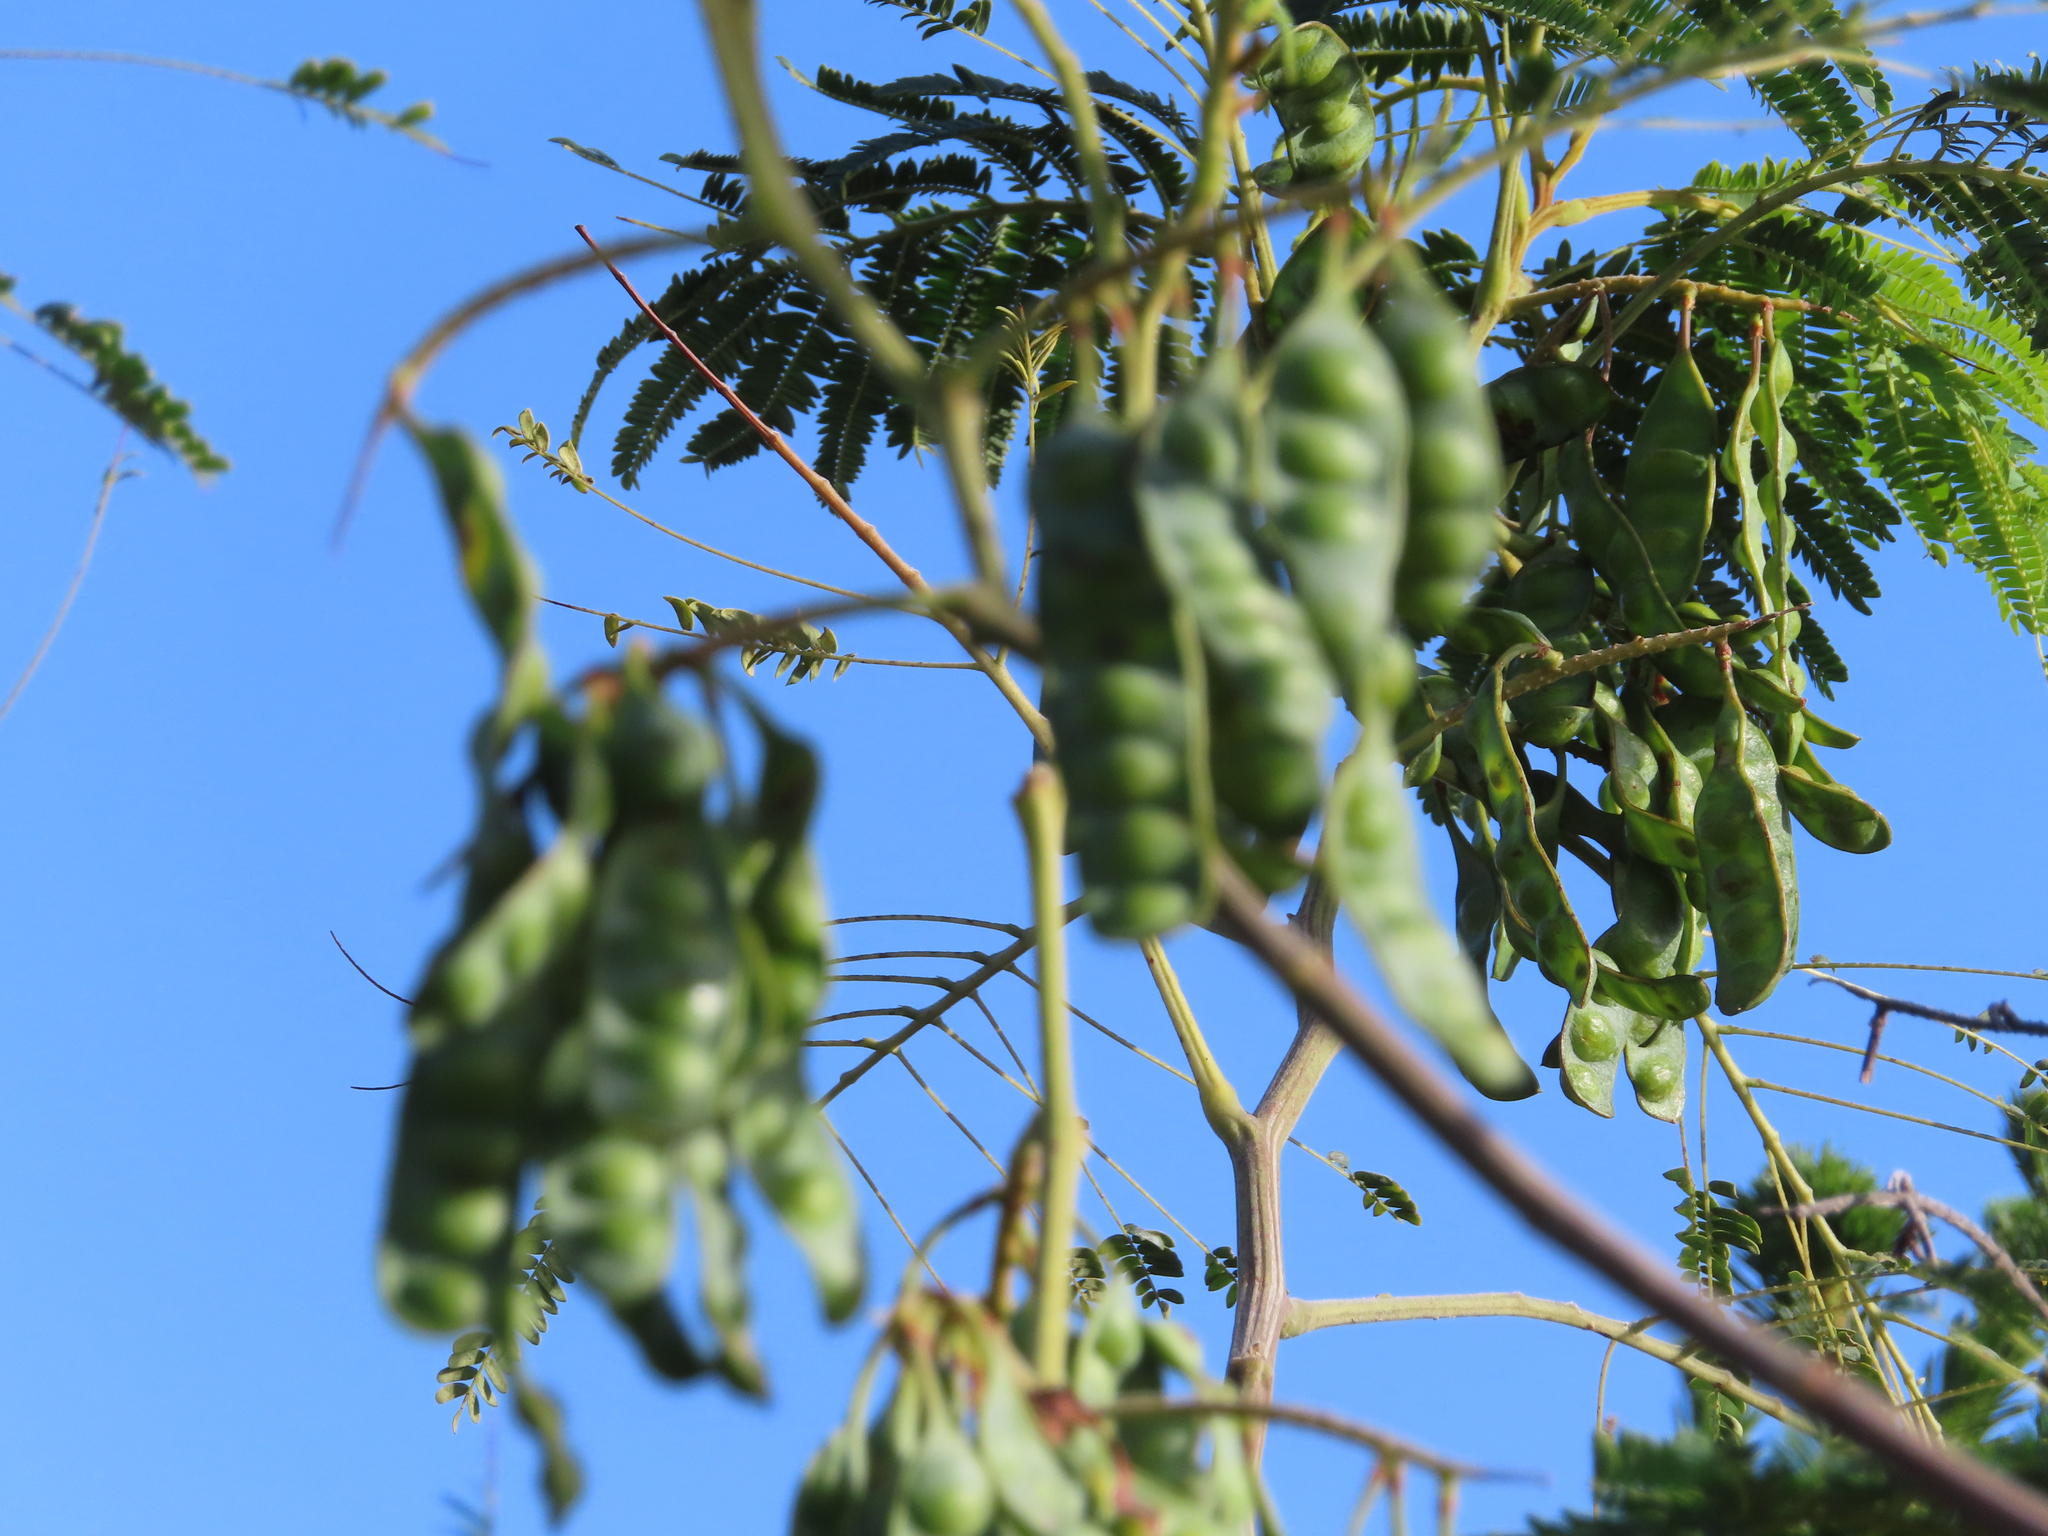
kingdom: Plantae
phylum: Tracheophyta
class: Magnoliopsida
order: Fabales
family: Fabaceae
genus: Paraserianthes
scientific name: Paraserianthes lophantha
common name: Plume albizia
